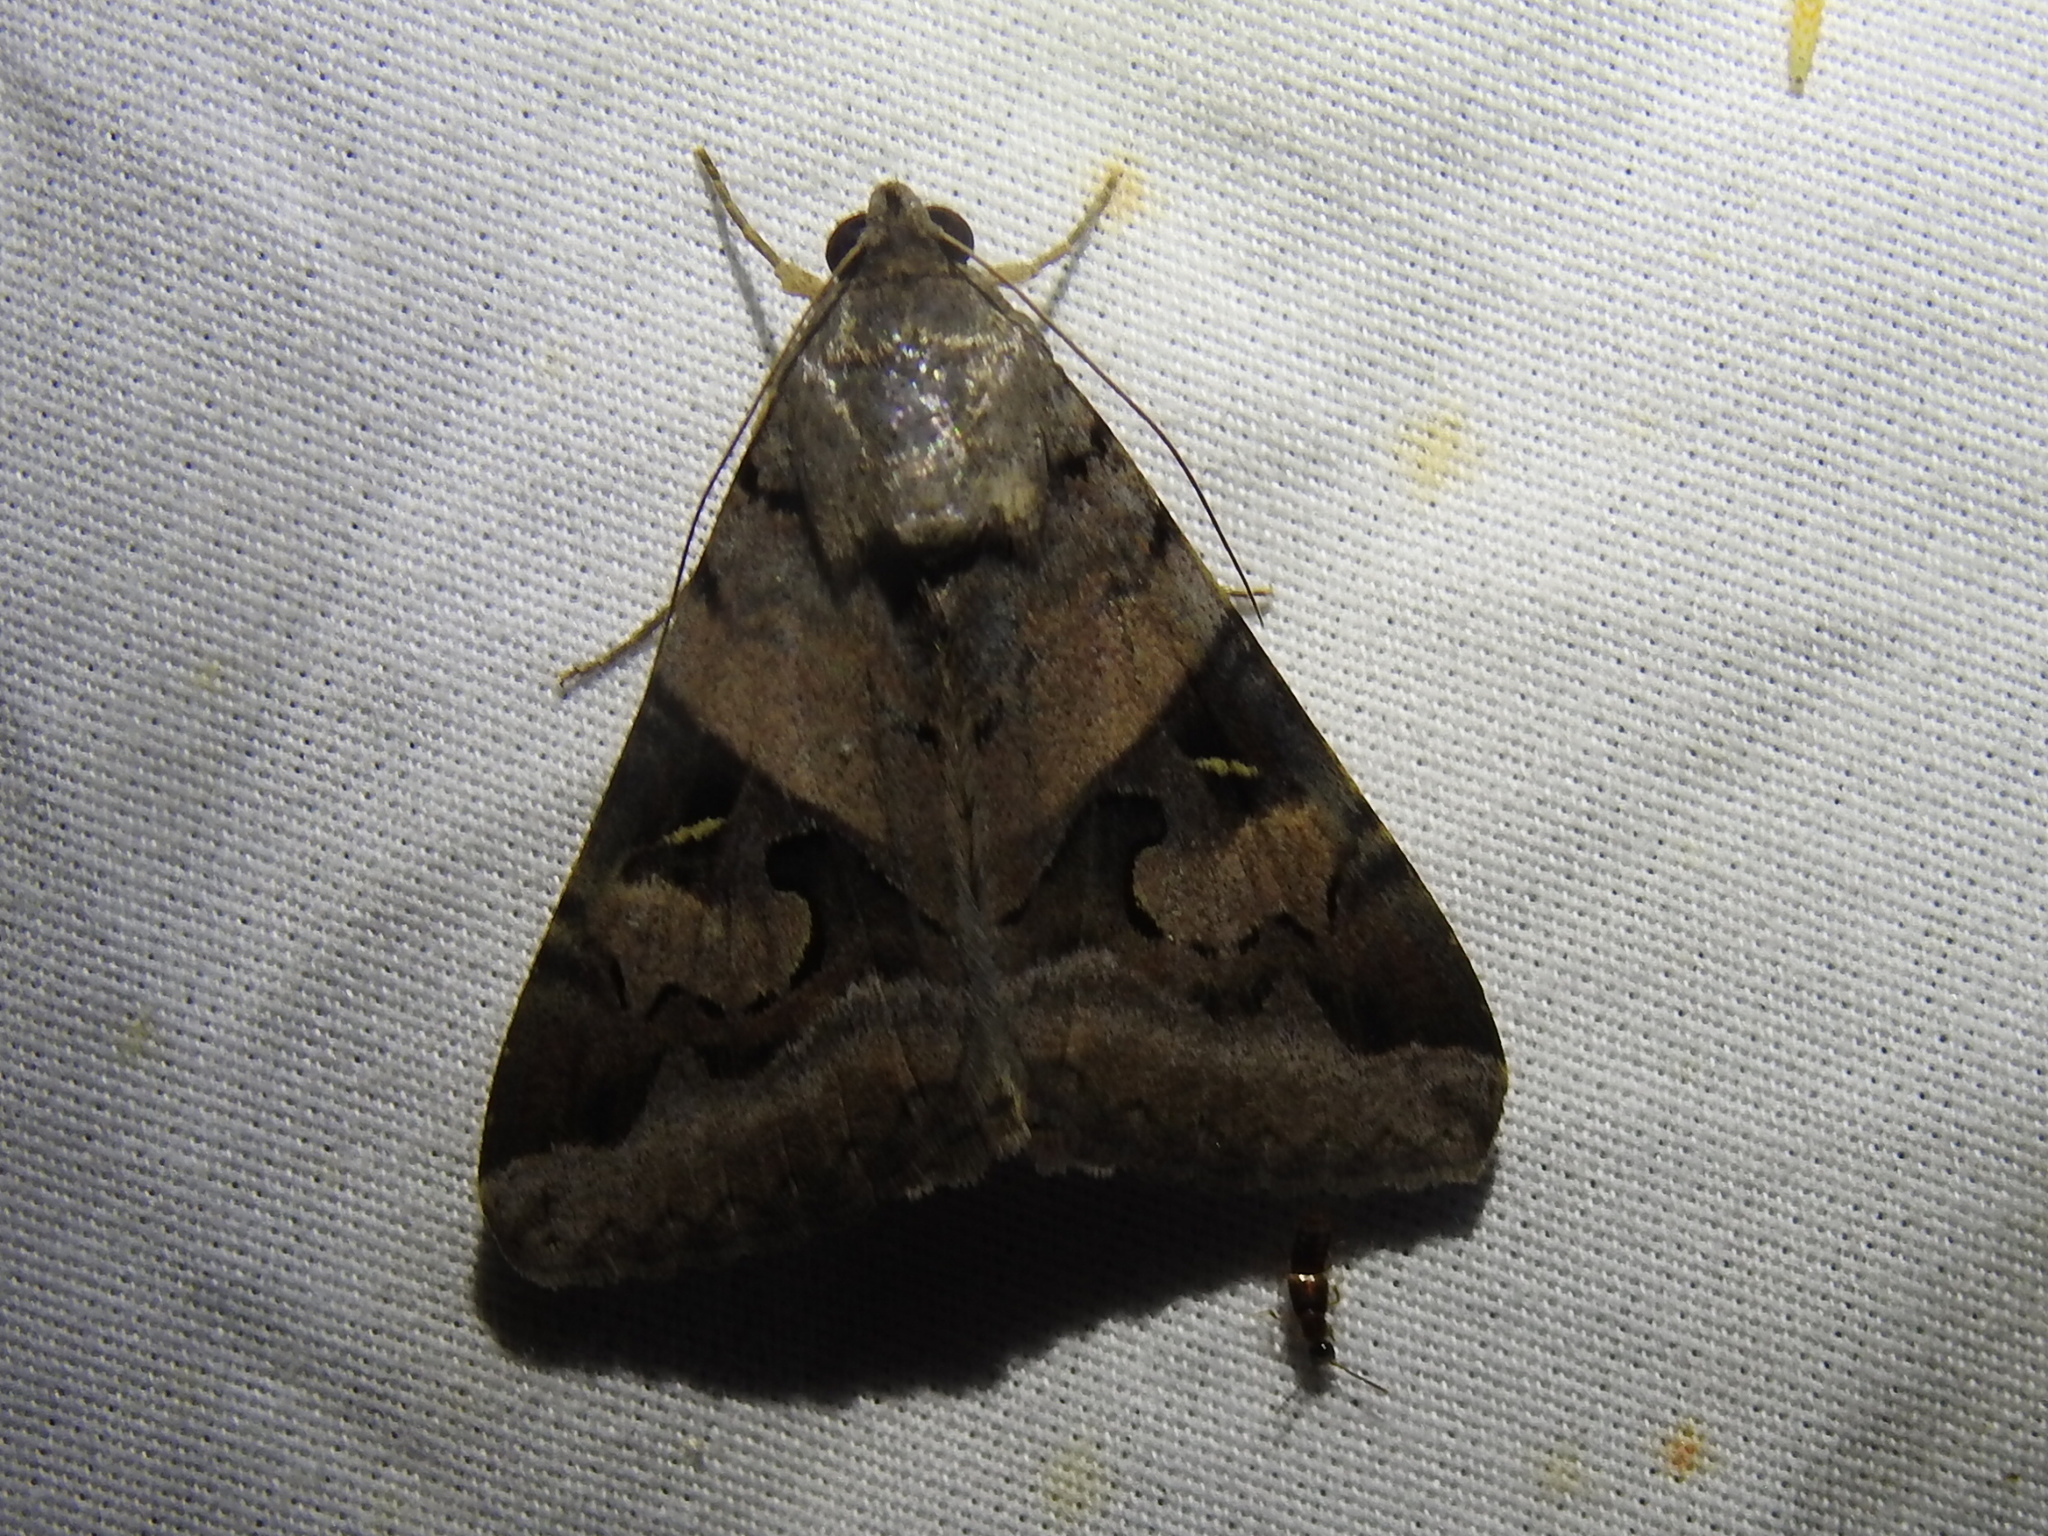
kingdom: Animalia
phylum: Arthropoda
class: Insecta
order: Lepidoptera
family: Erebidae
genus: Melipotis
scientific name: Melipotis indomita
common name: Moth
